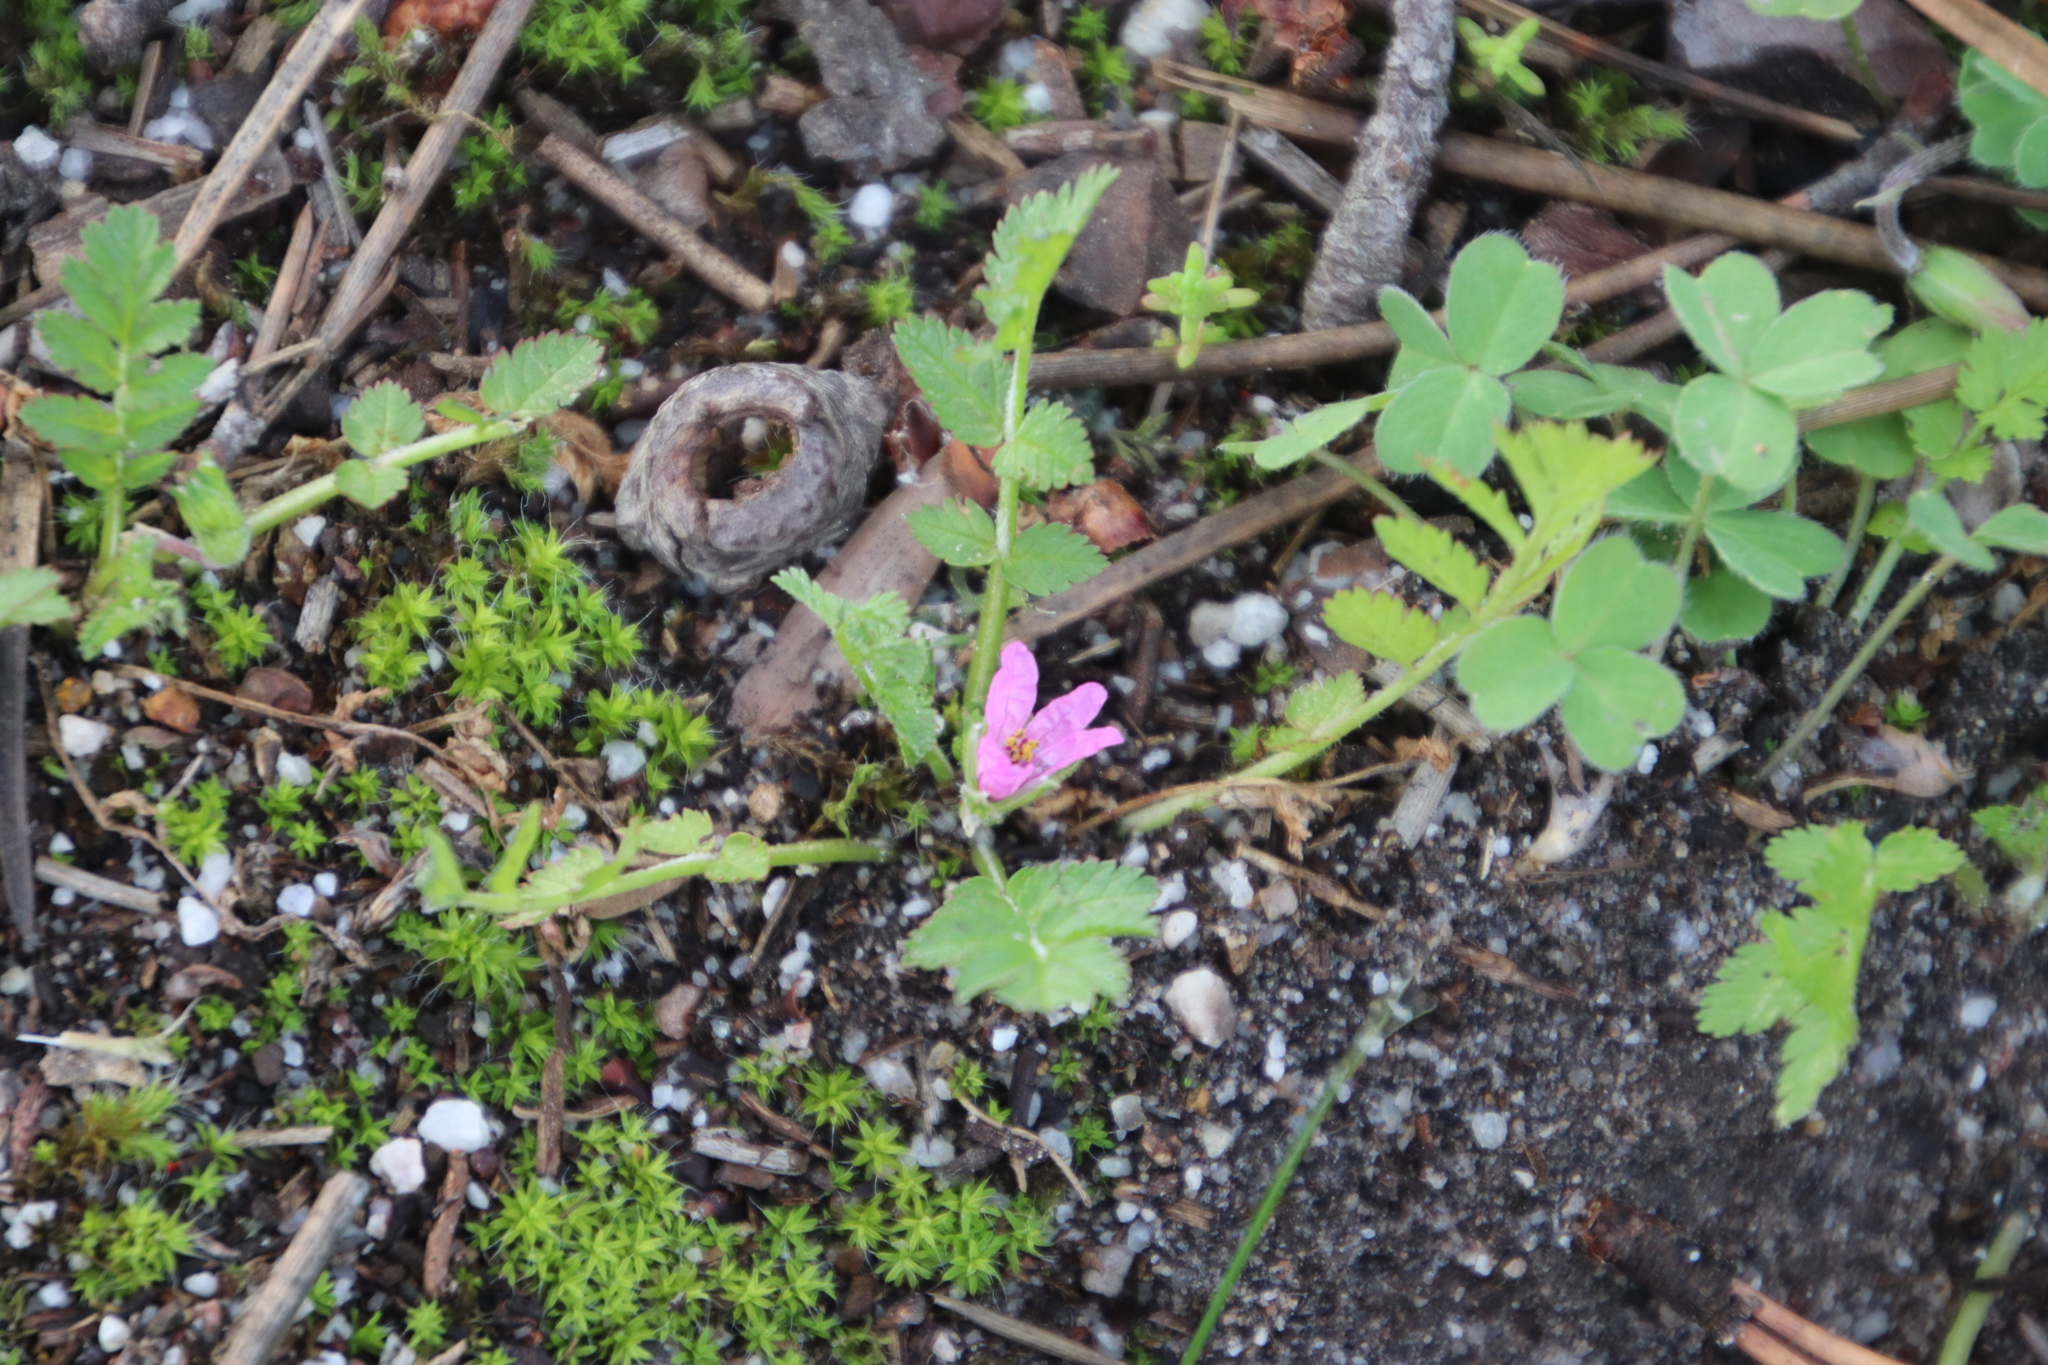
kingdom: Plantae
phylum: Tracheophyta
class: Magnoliopsida
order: Geraniales
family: Geraniaceae
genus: Erodium
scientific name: Erodium moschatum
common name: Musk stork's-bill
